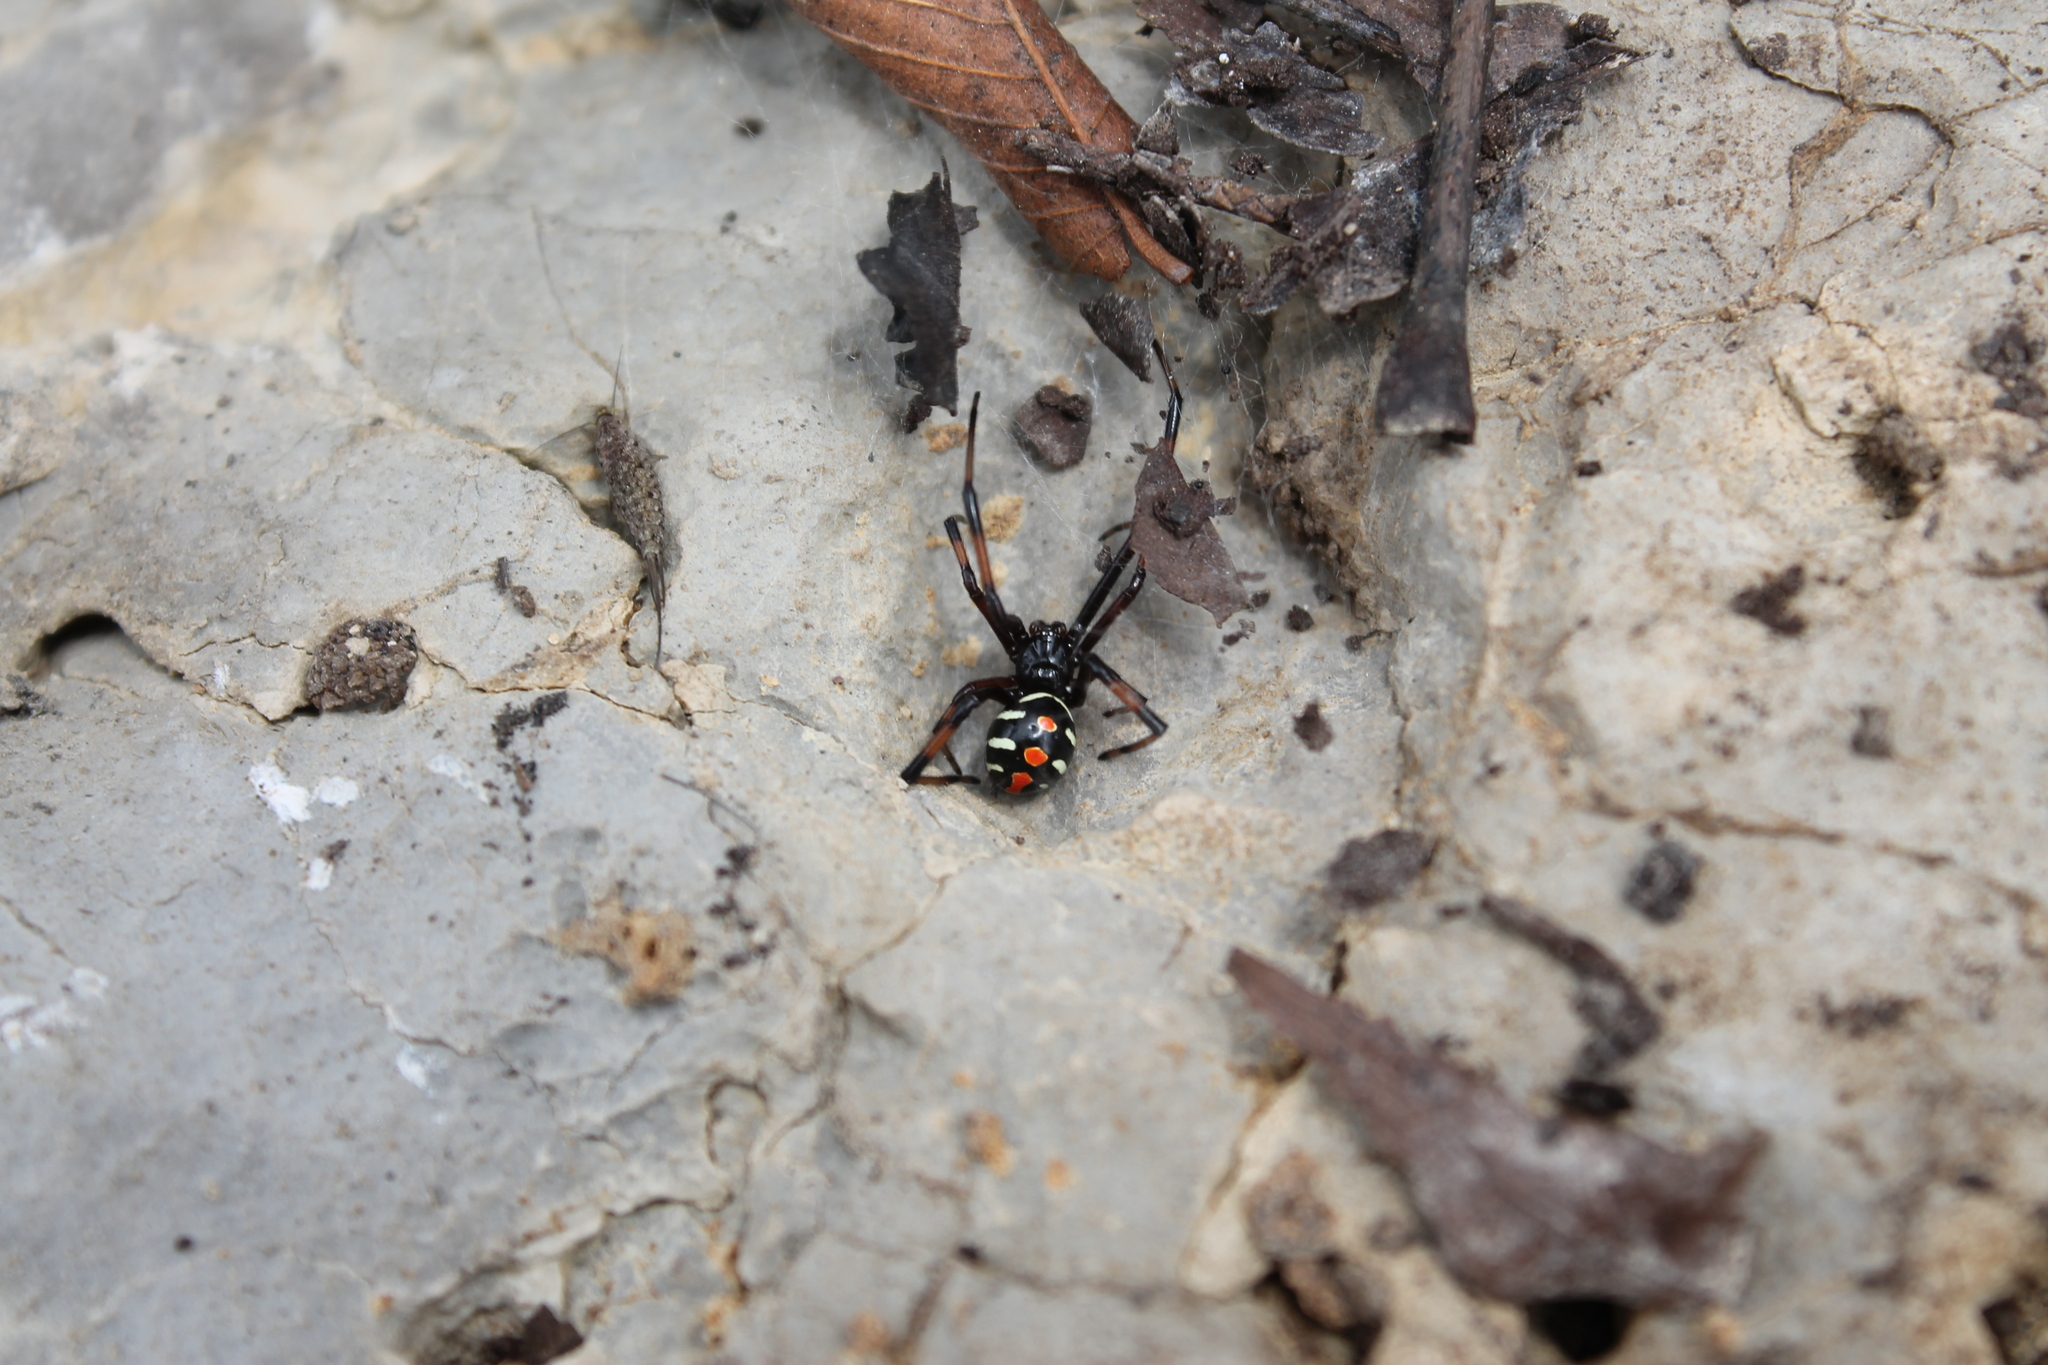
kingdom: Animalia
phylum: Arthropoda
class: Arachnida
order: Araneae
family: Theridiidae
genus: Latrodectus
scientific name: Latrodectus variolus
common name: Northern black widow
